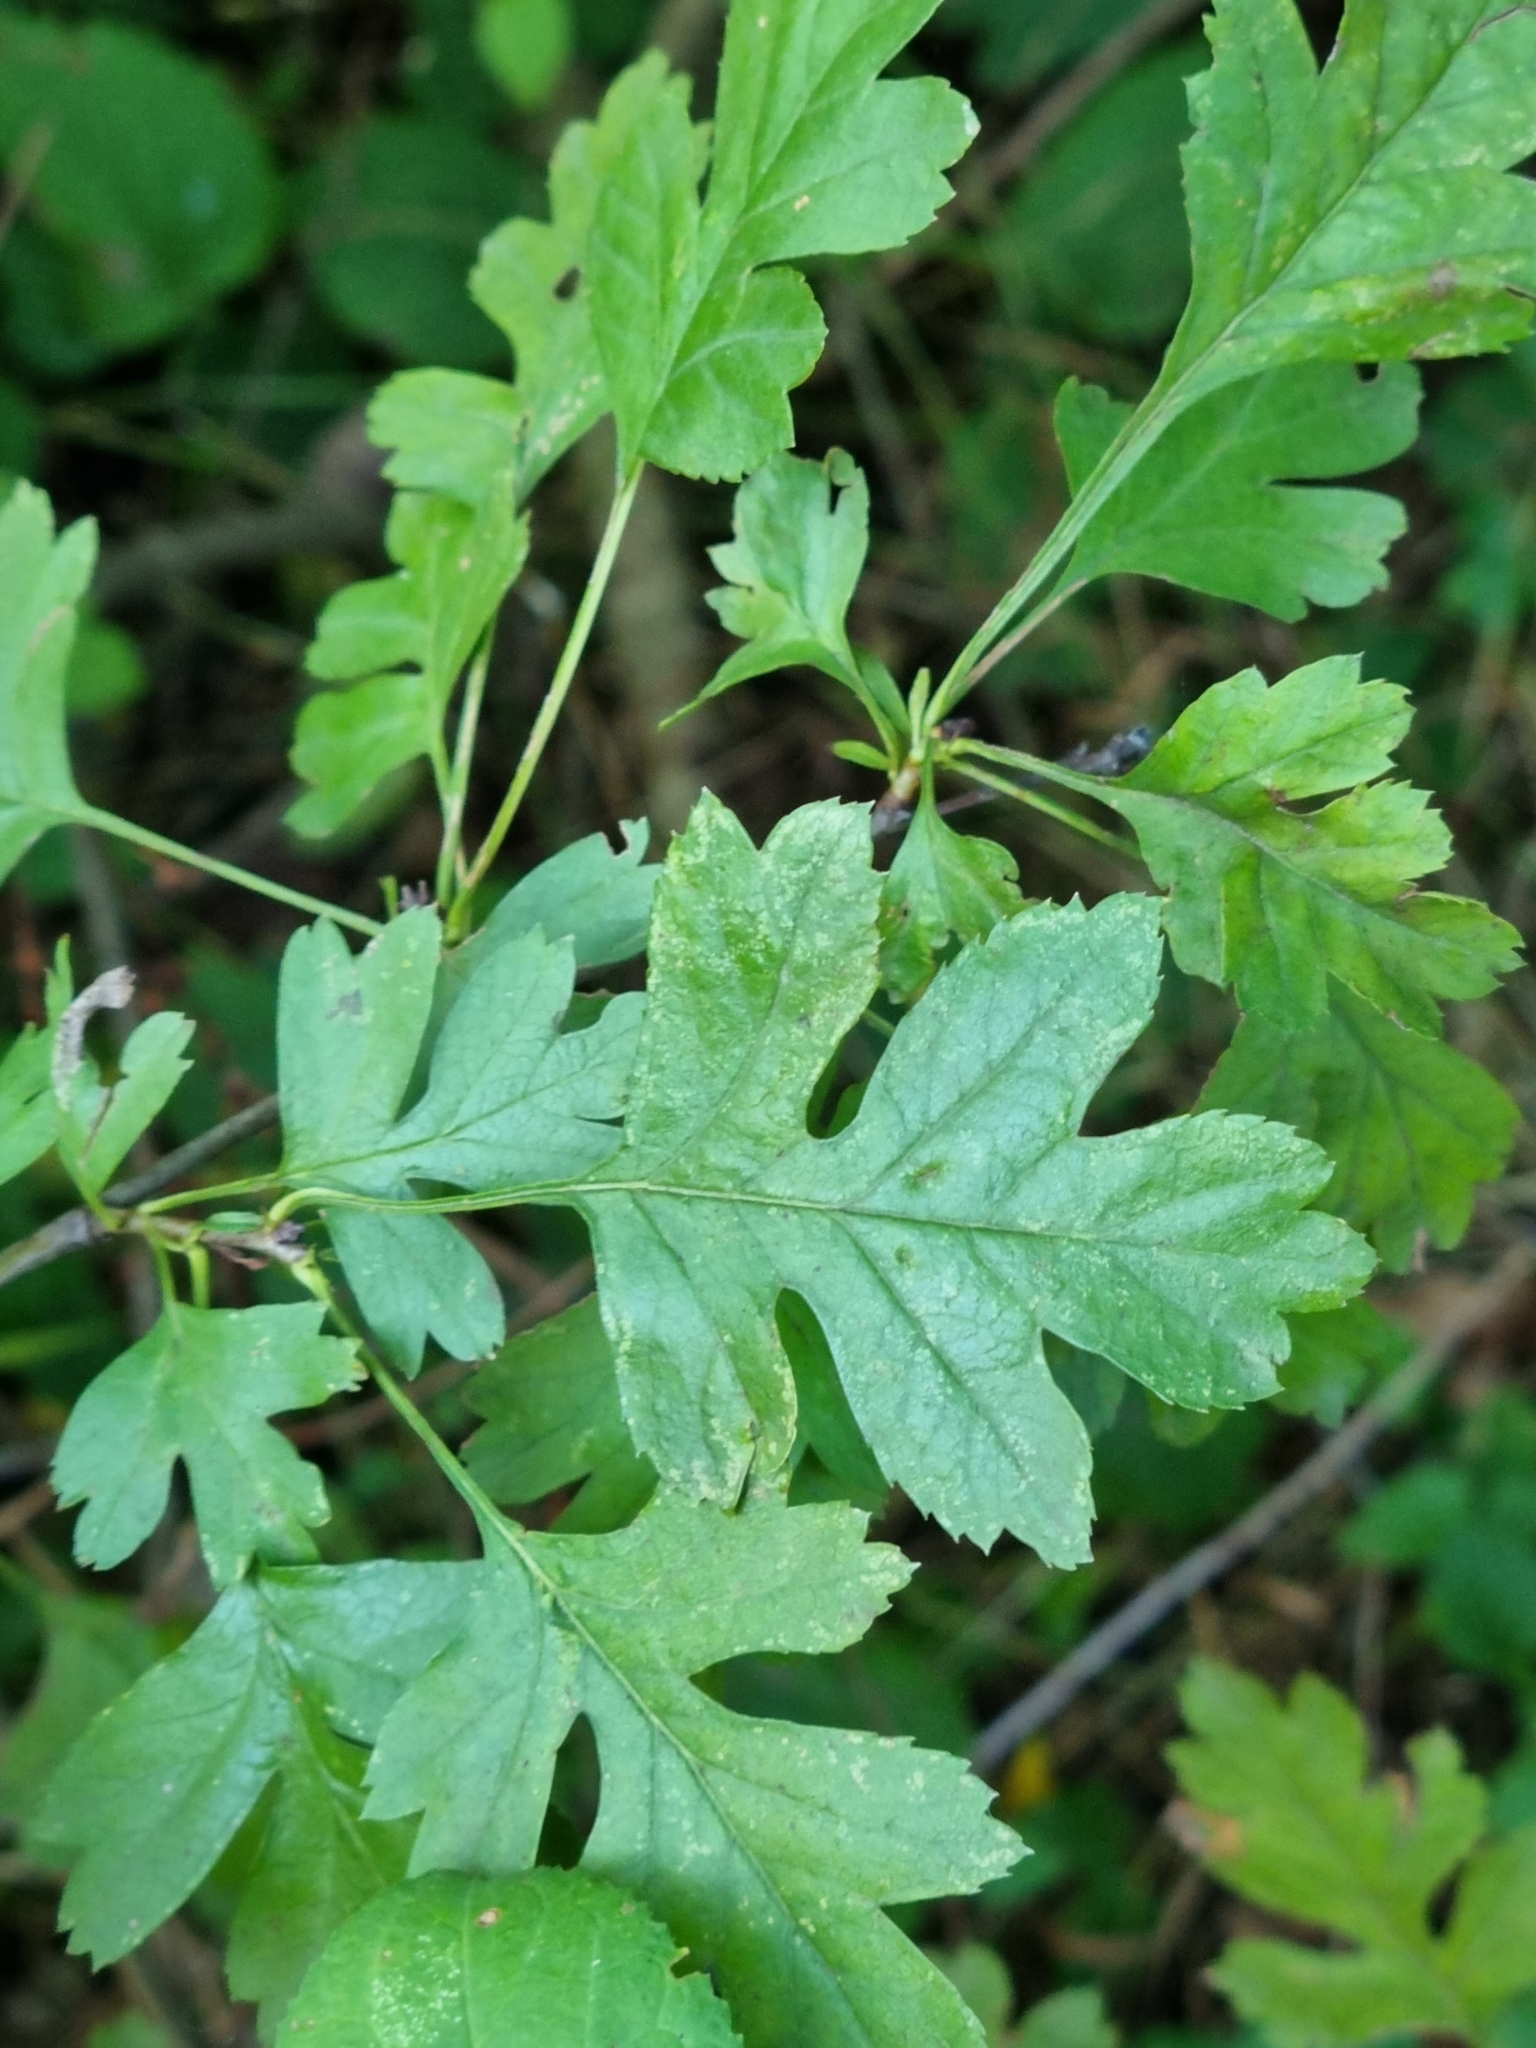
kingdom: Plantae
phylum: Tracheophyta
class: Magnoliopsida
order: Rosales
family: Rosaceae
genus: Crataegus
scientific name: Crataegus monogyna
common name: Hawthorn
